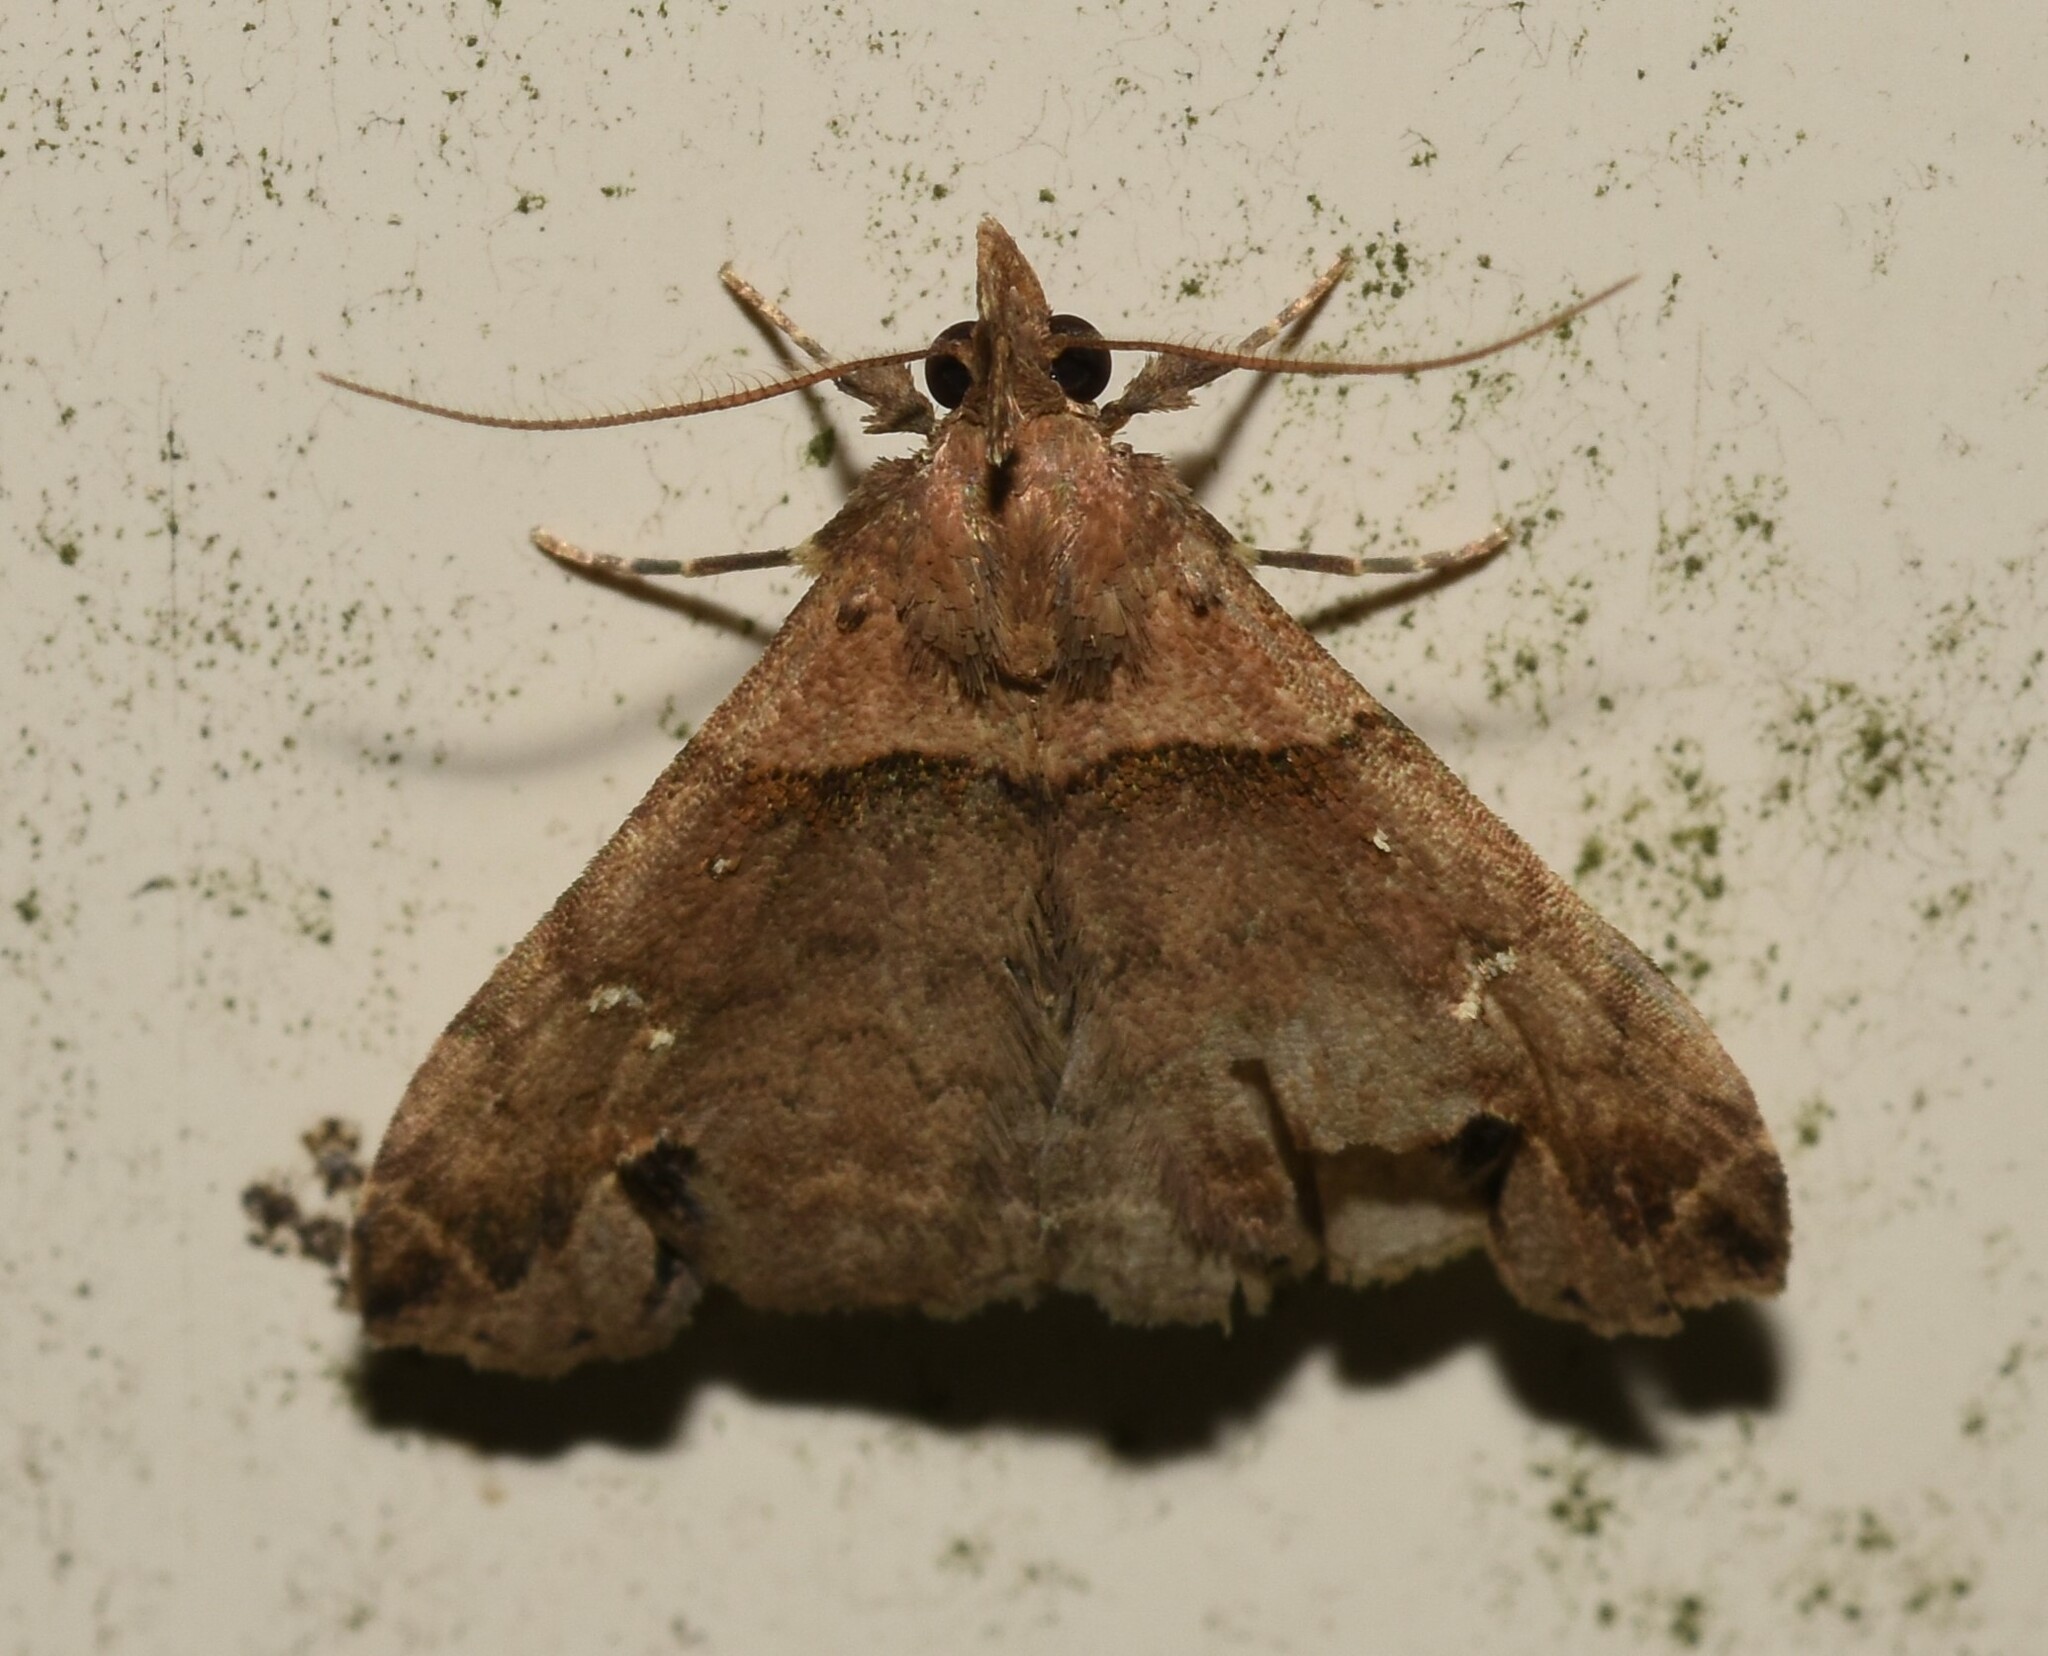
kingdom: Animalia
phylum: Arthropoda
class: Insecta
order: Lepidoptera
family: Erebidae
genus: Lascoria
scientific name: Lascoria ambigualis
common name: Ambiguous moth
